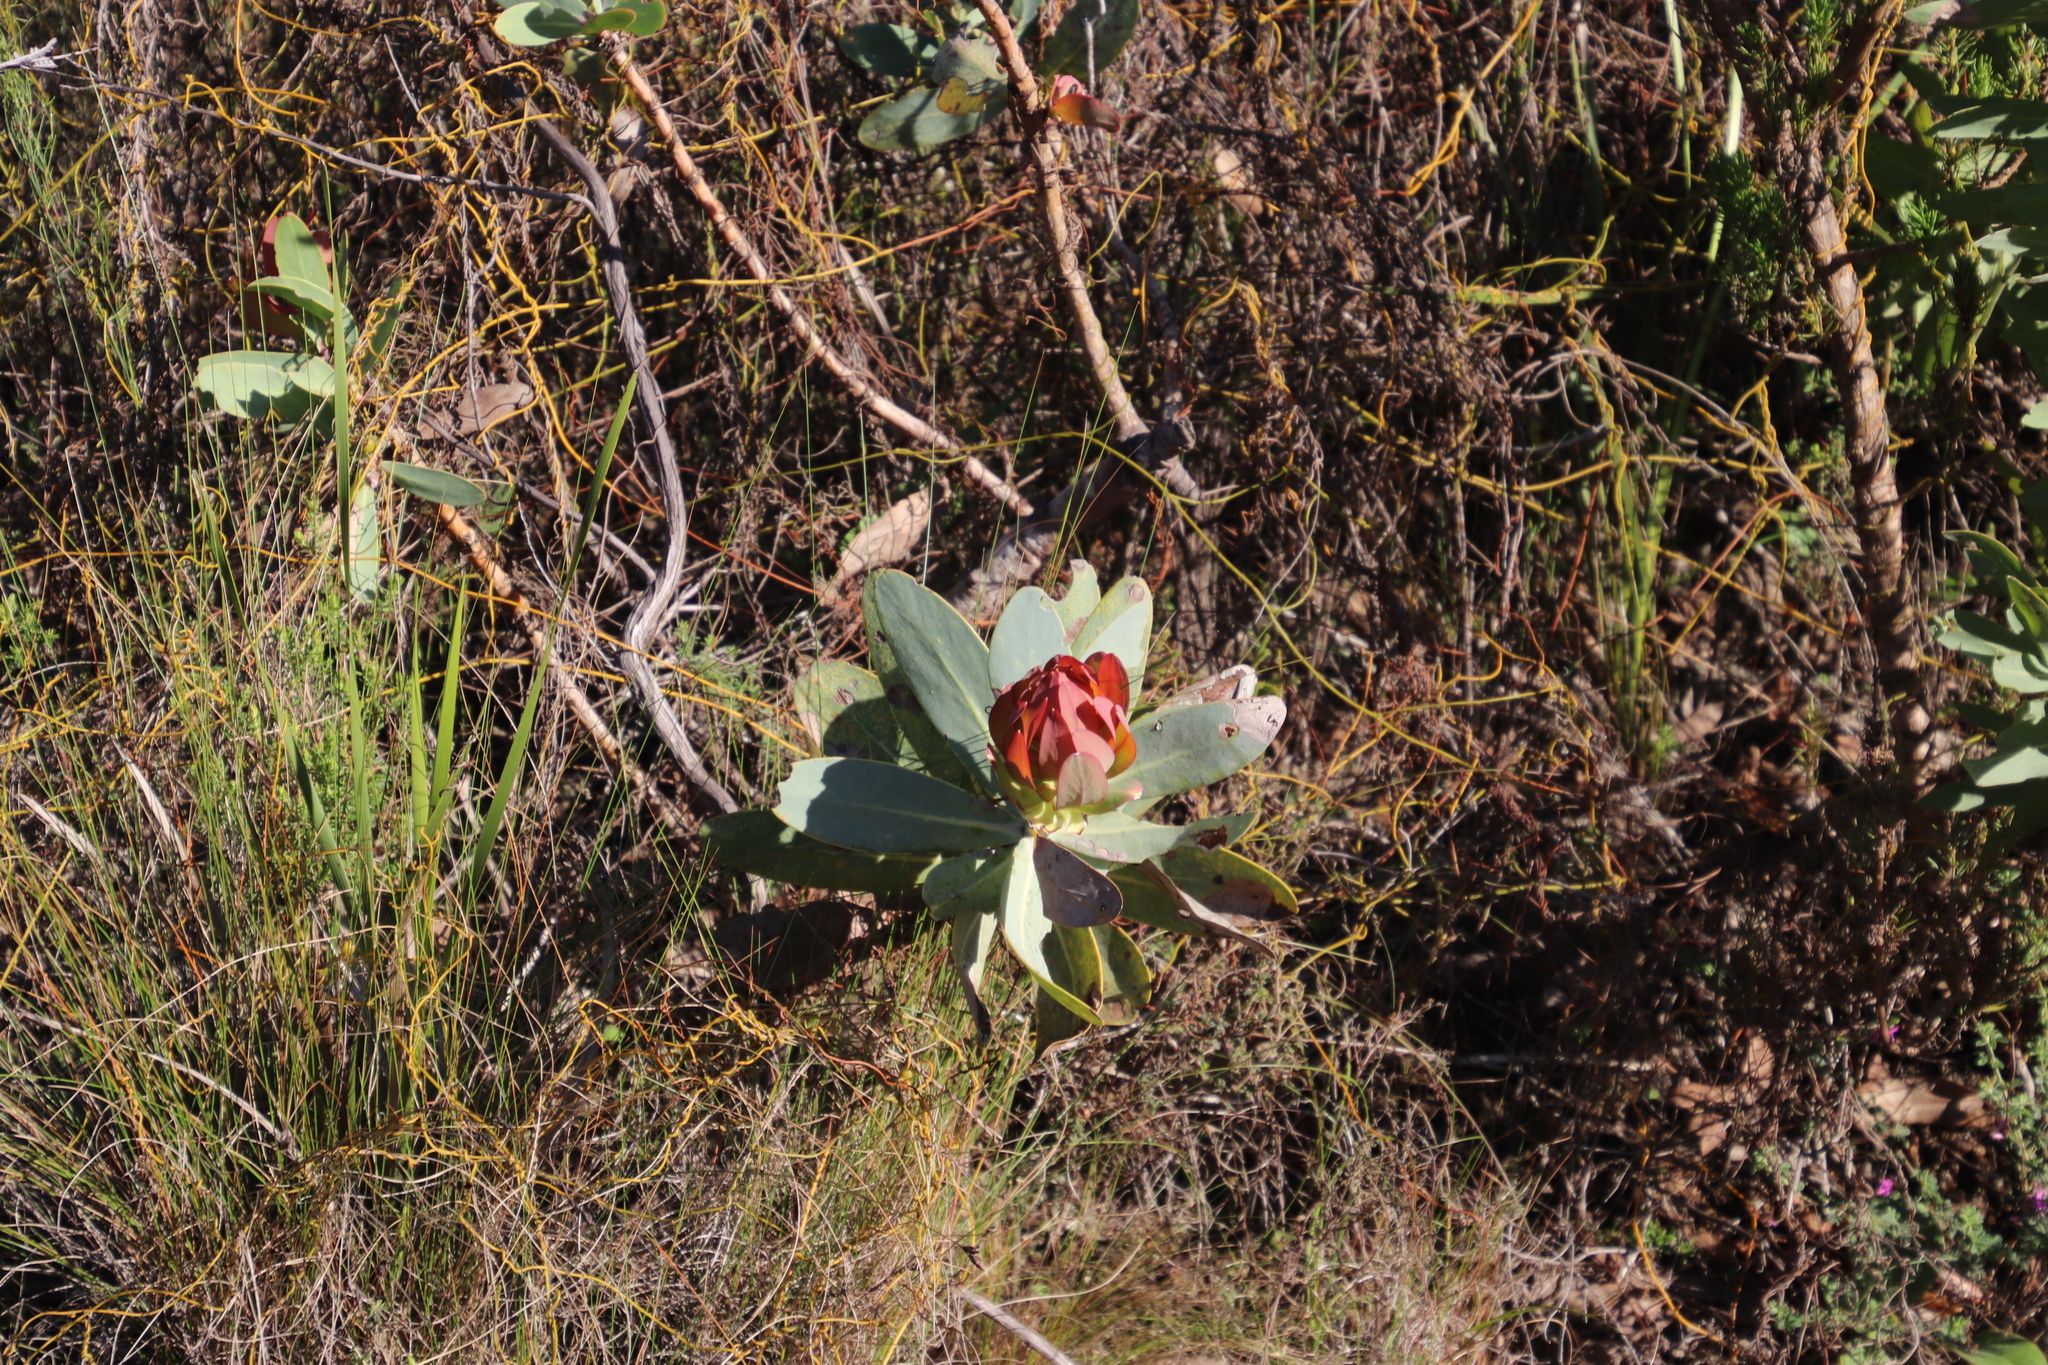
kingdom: Plantae
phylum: Tracheophyta
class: Magnoliopsida
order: Proteales
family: Proteaceae
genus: Protea
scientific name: Protea nitida
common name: Tree protea
